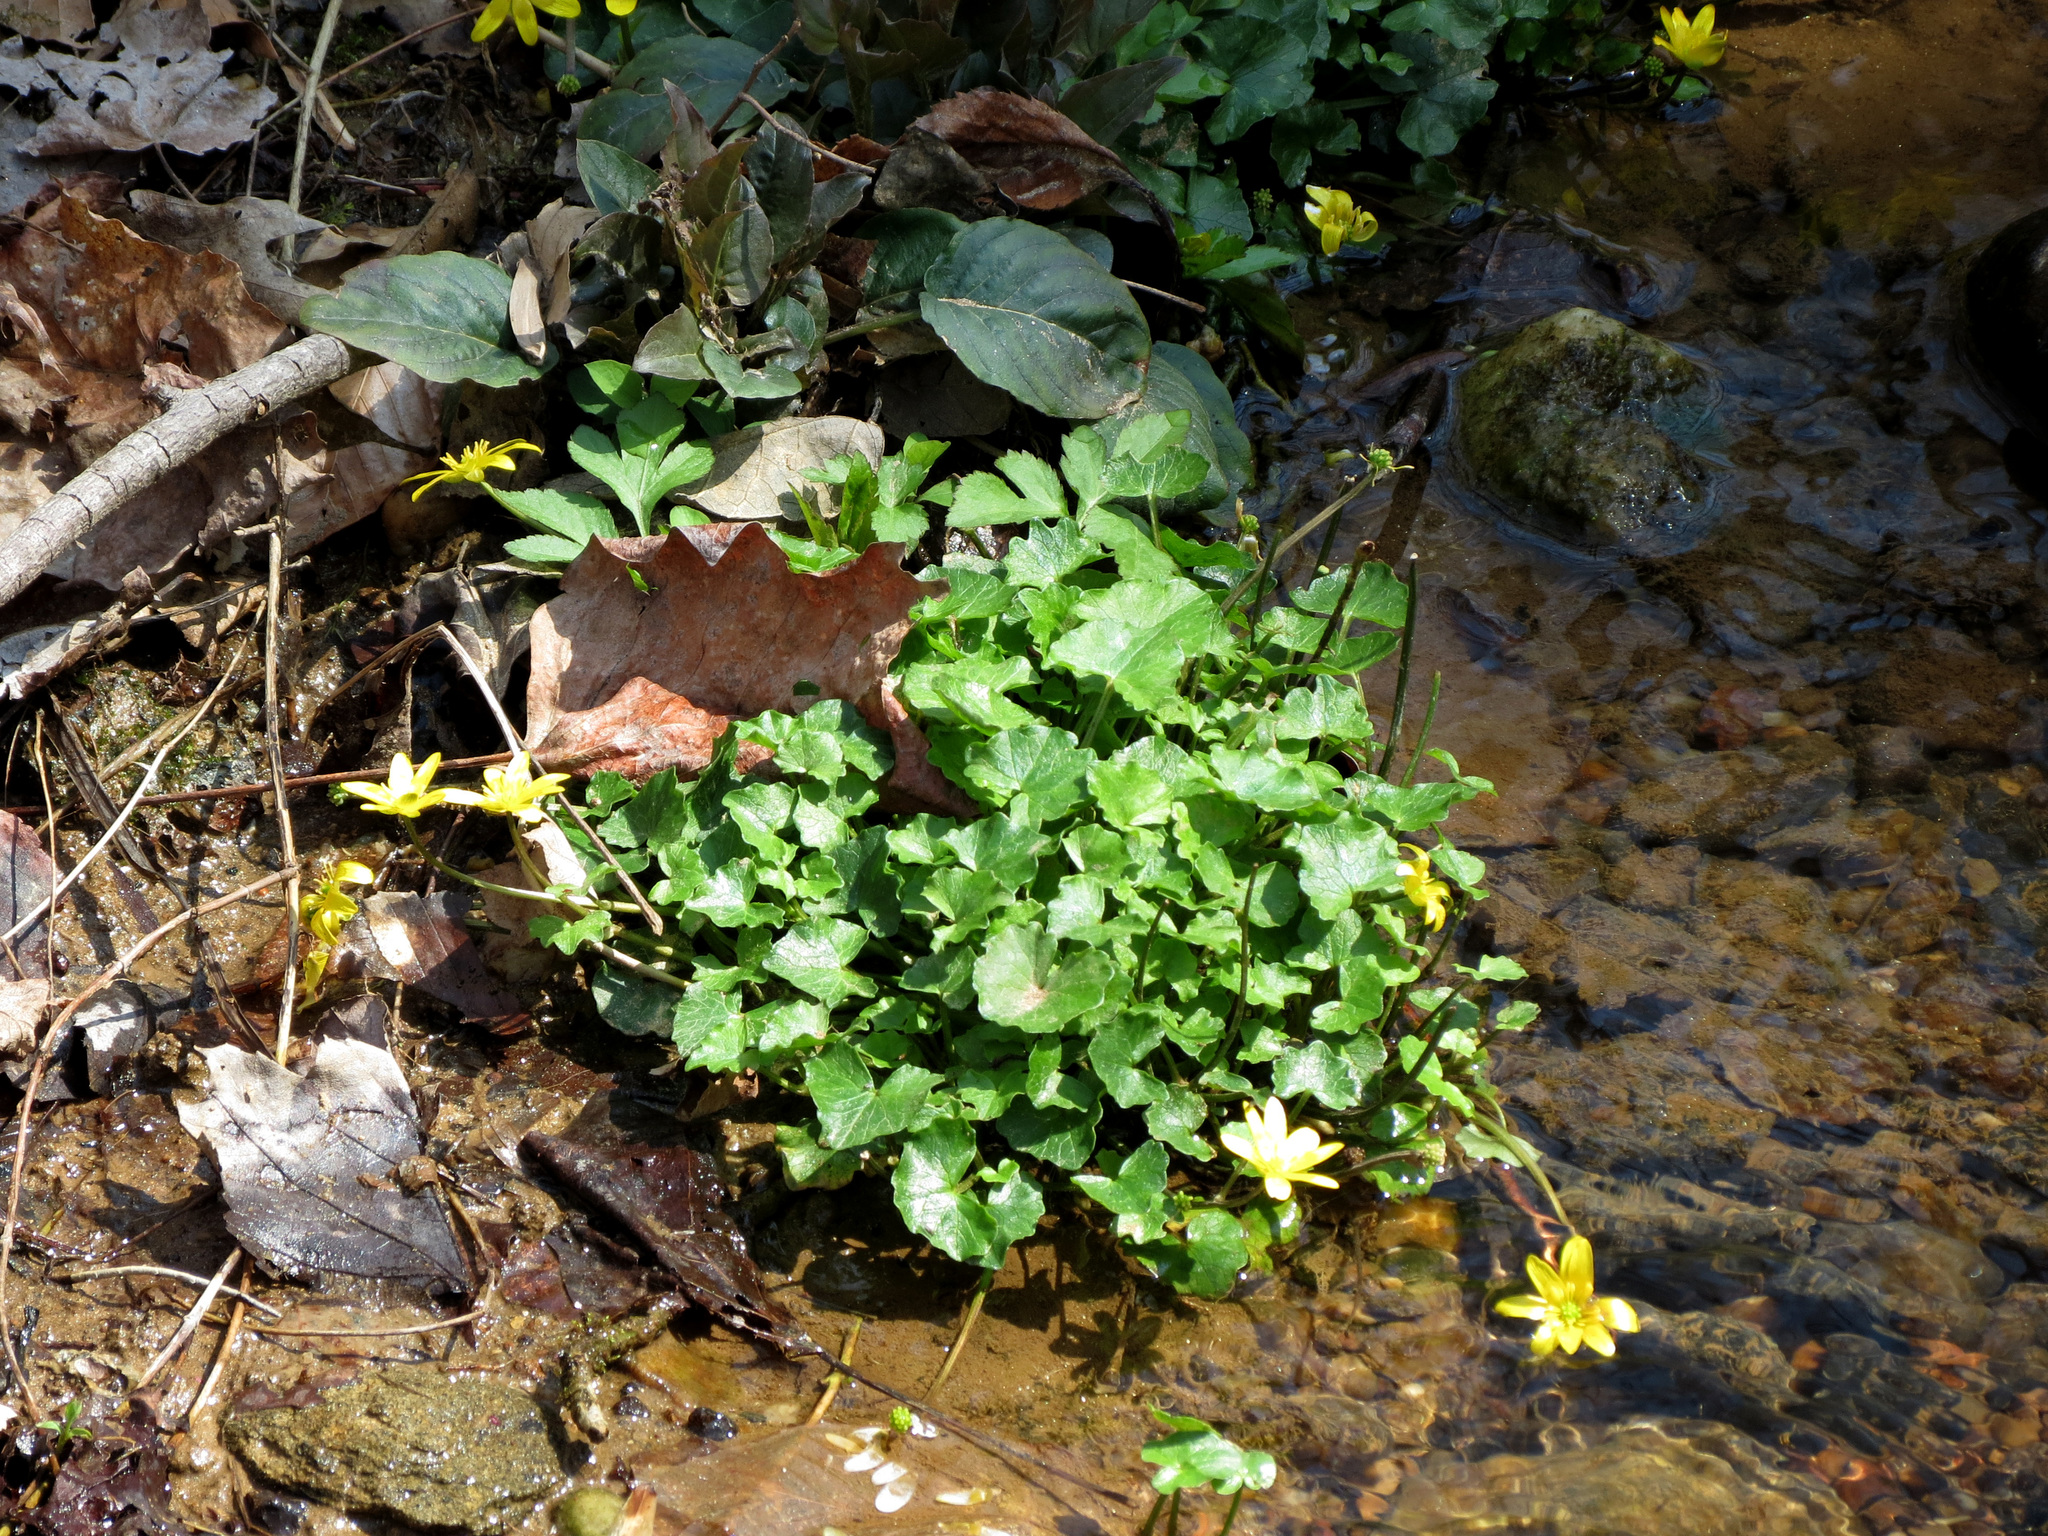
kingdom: Plantae
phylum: Tracheophyta
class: Magnoliopsida
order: Ranunculales
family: Ranunculaceae
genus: Ficaria
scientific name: Ficaria verna
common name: Lesser celandine
